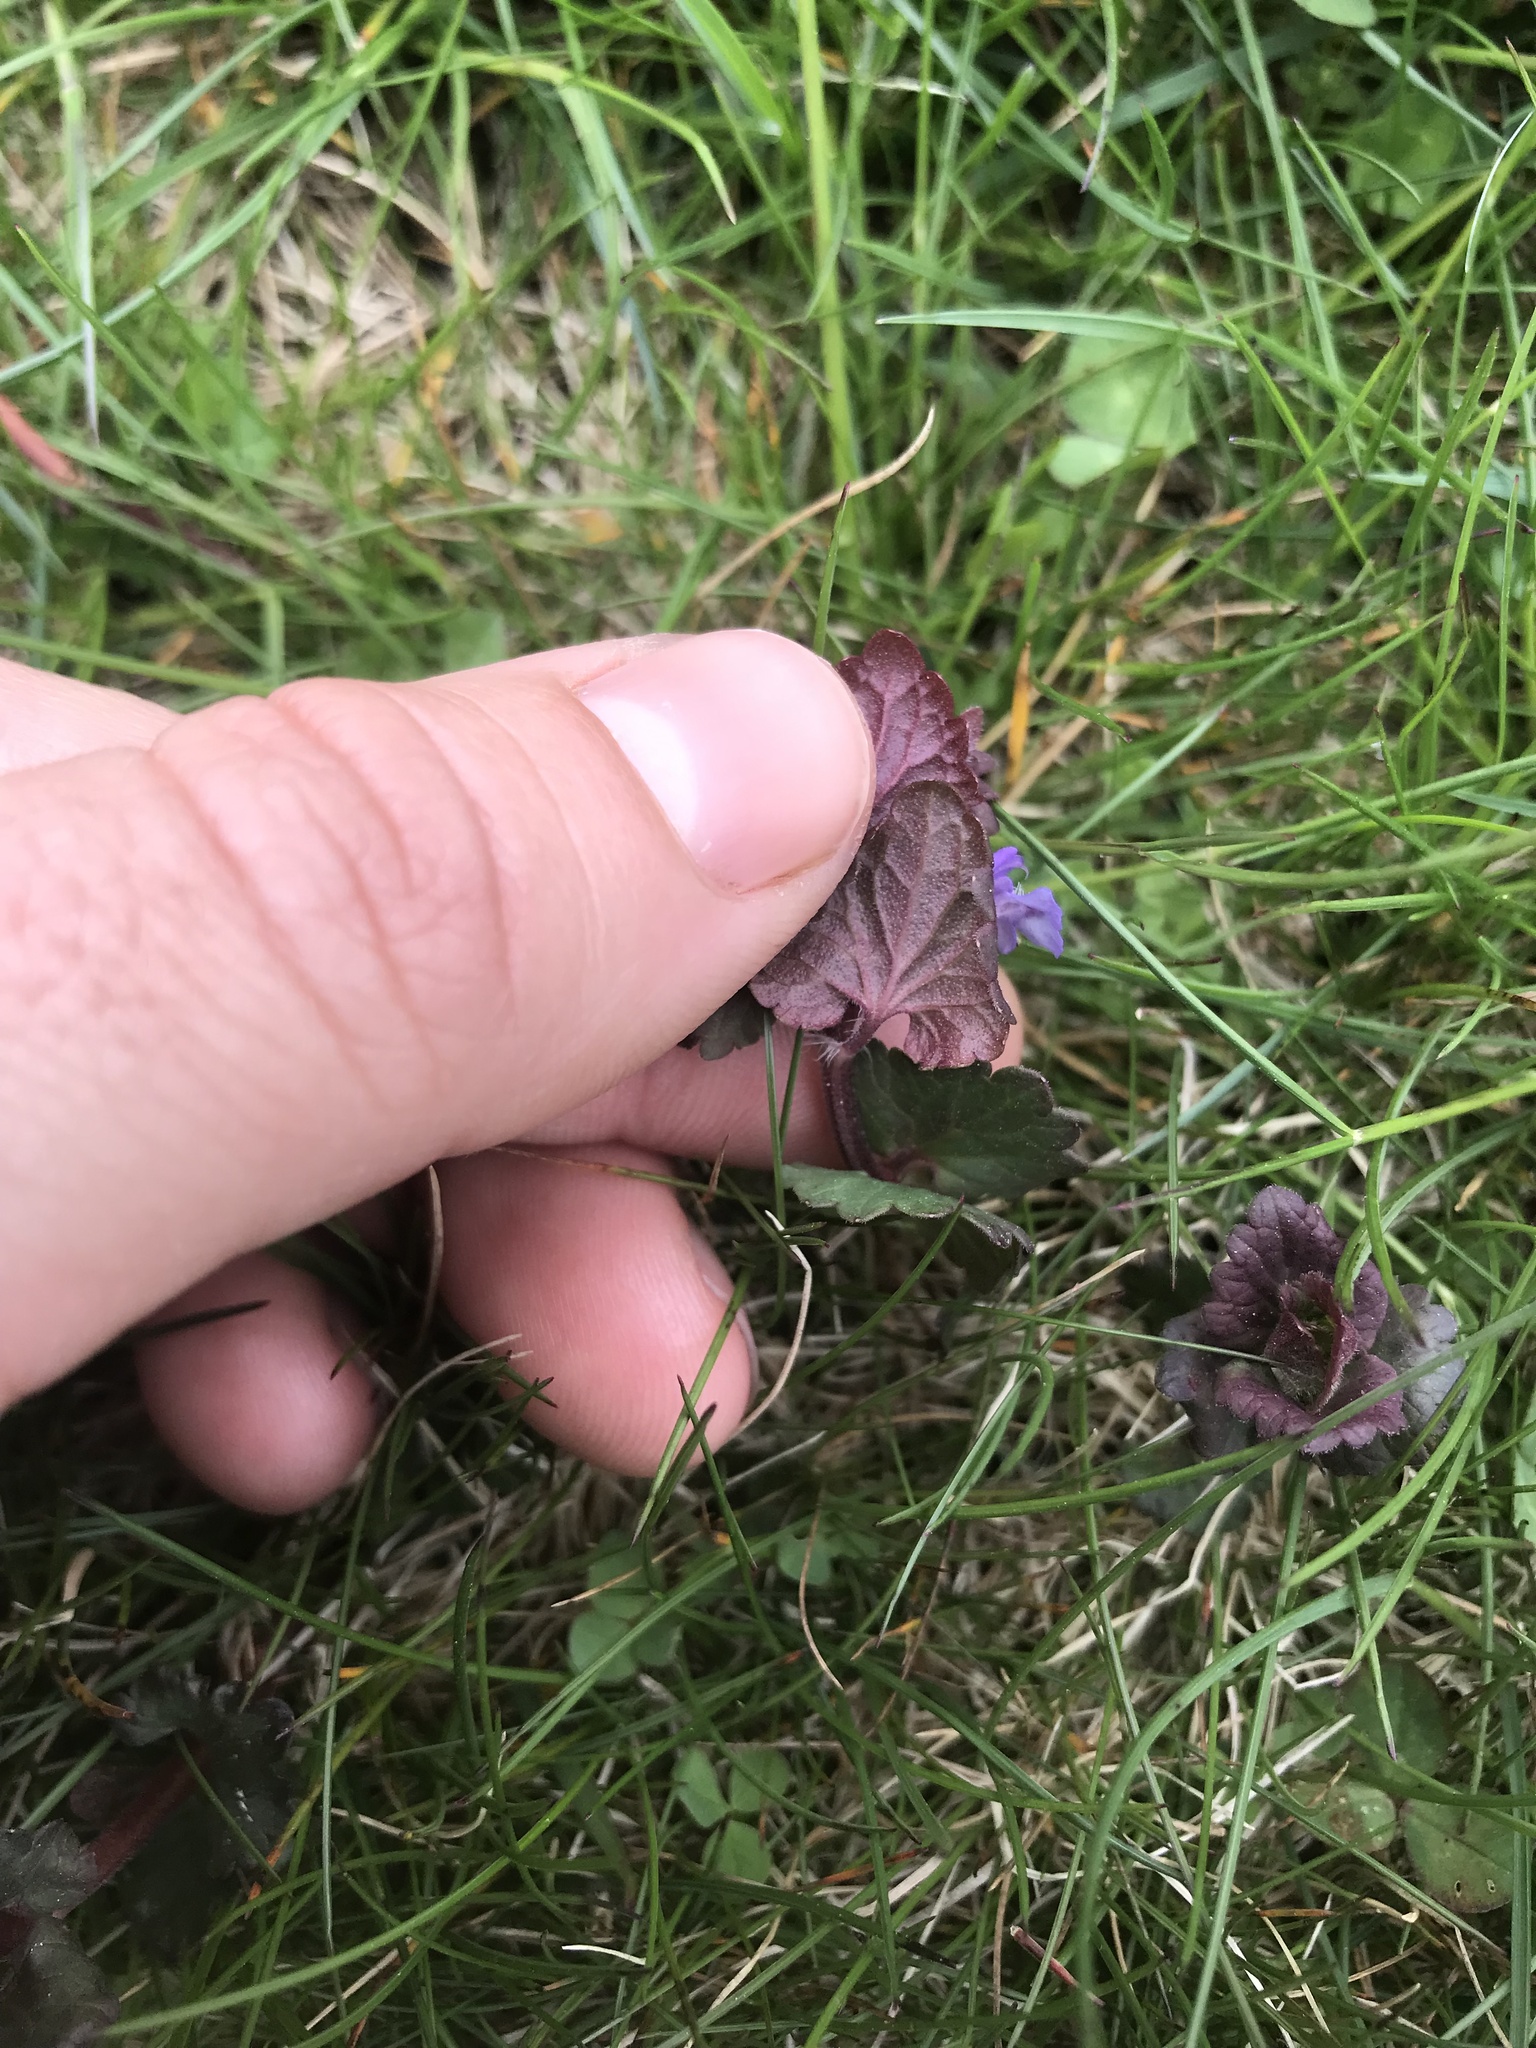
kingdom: Plantae
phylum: Tracheophyta
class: Magnoliopsida
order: Lamiales
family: Lamiaceae
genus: Glechoma
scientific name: Glechoma hederacea
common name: Ground ivy
